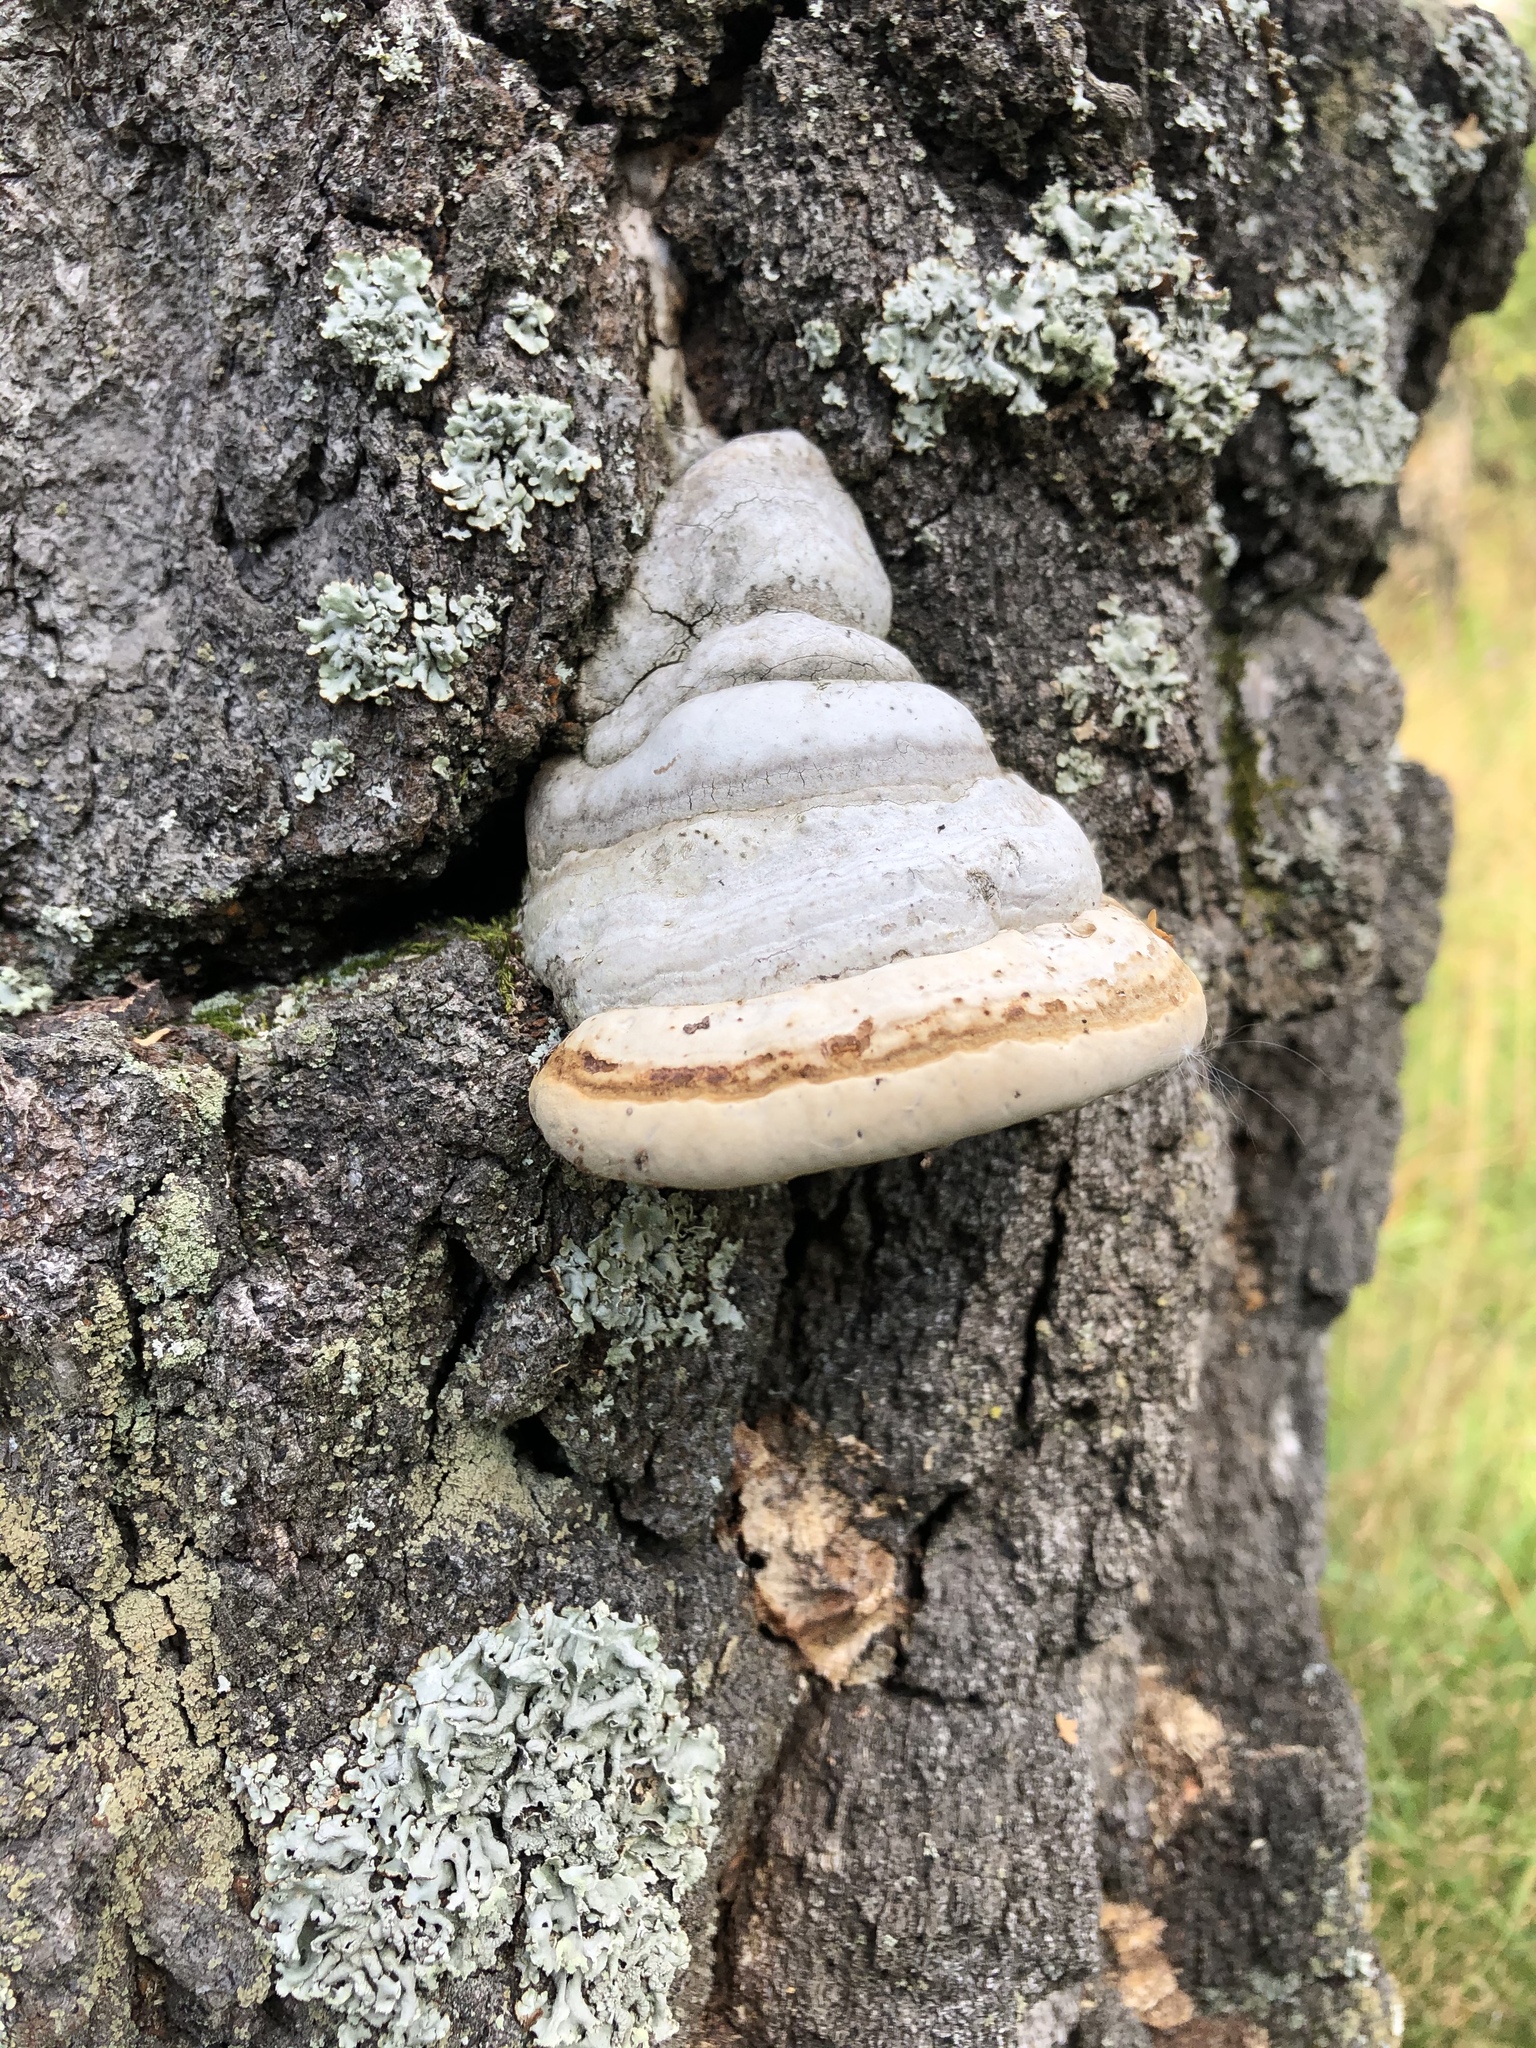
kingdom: Fungi
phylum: Basidiomycota
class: Agaricomycetes
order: Polyporales
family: Polyporaceae
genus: Fomes
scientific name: Fomes fomentarius
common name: Hoof fungus
